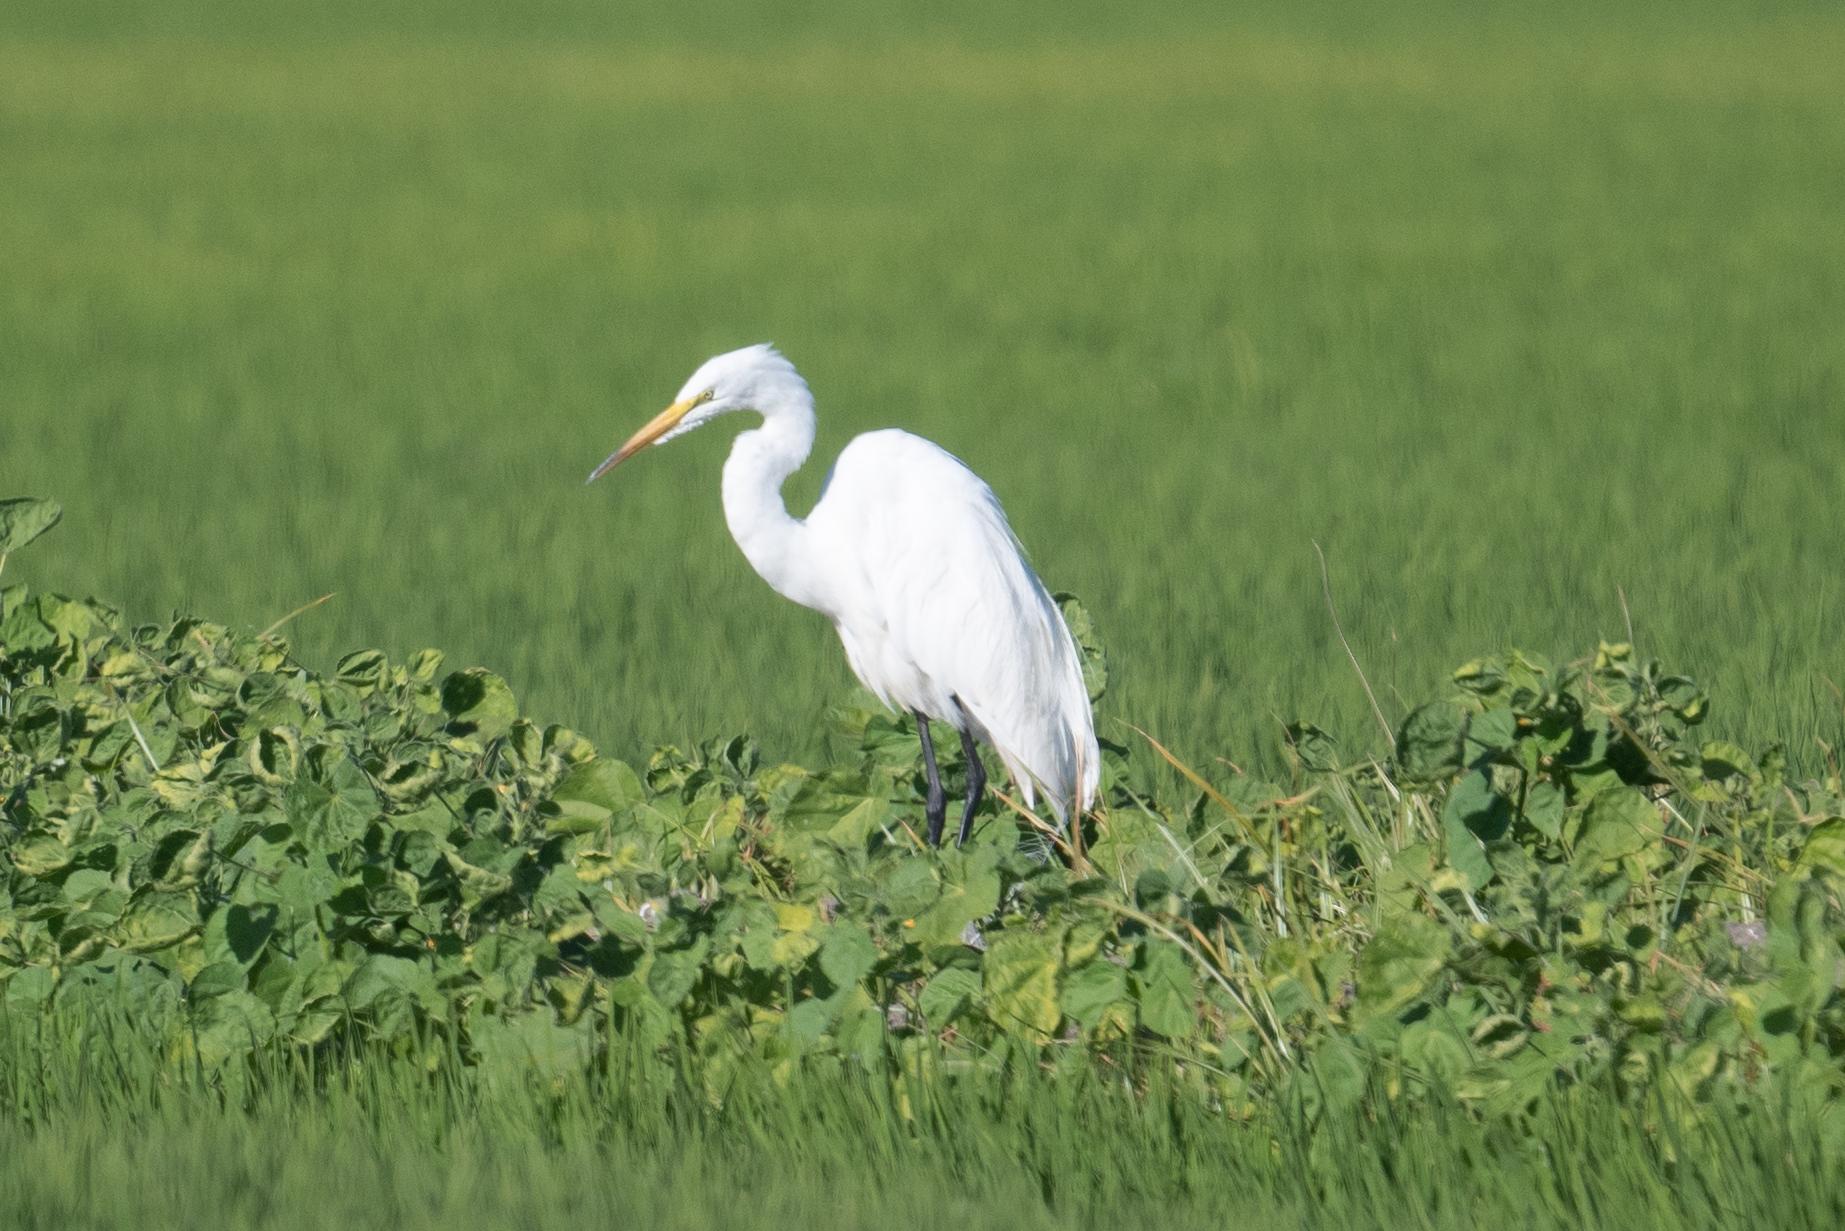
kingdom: Animalia
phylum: Chordata
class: Aves
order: Pelecaniformes
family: Ardeidae
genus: Ardea
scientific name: Ardea alba
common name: Great egret
